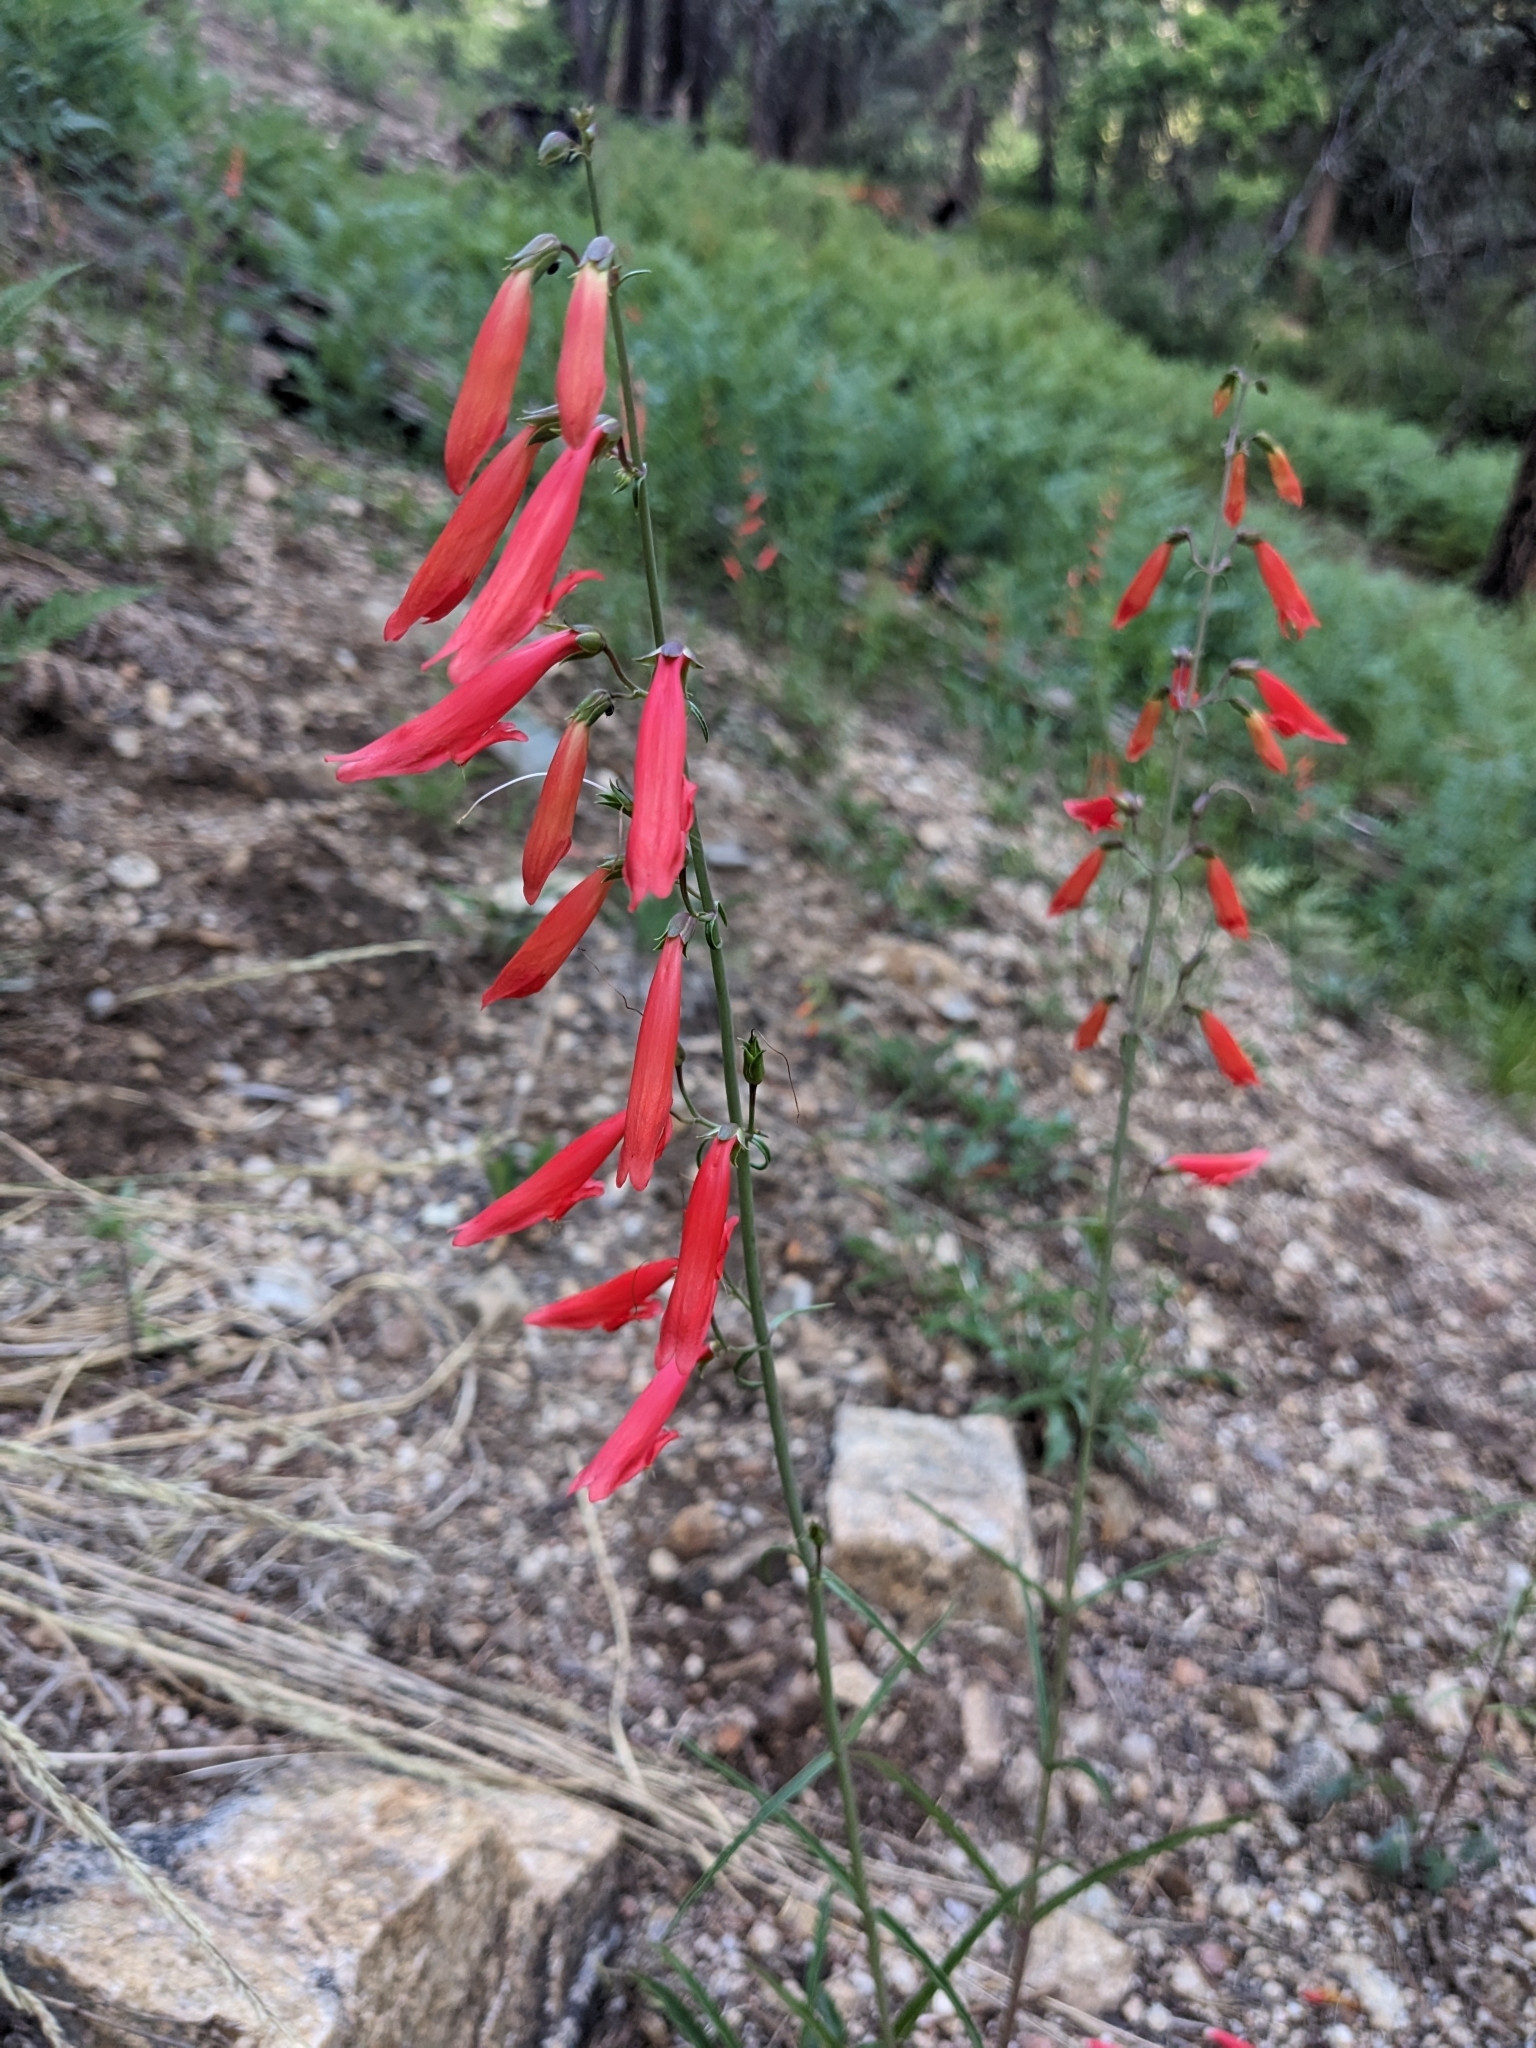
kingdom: Plantae
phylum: Tracheophyta
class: Magnoliopsida
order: Lamiales
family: Plantaginaceae
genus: Penstemon
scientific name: Penstemon barbatus
